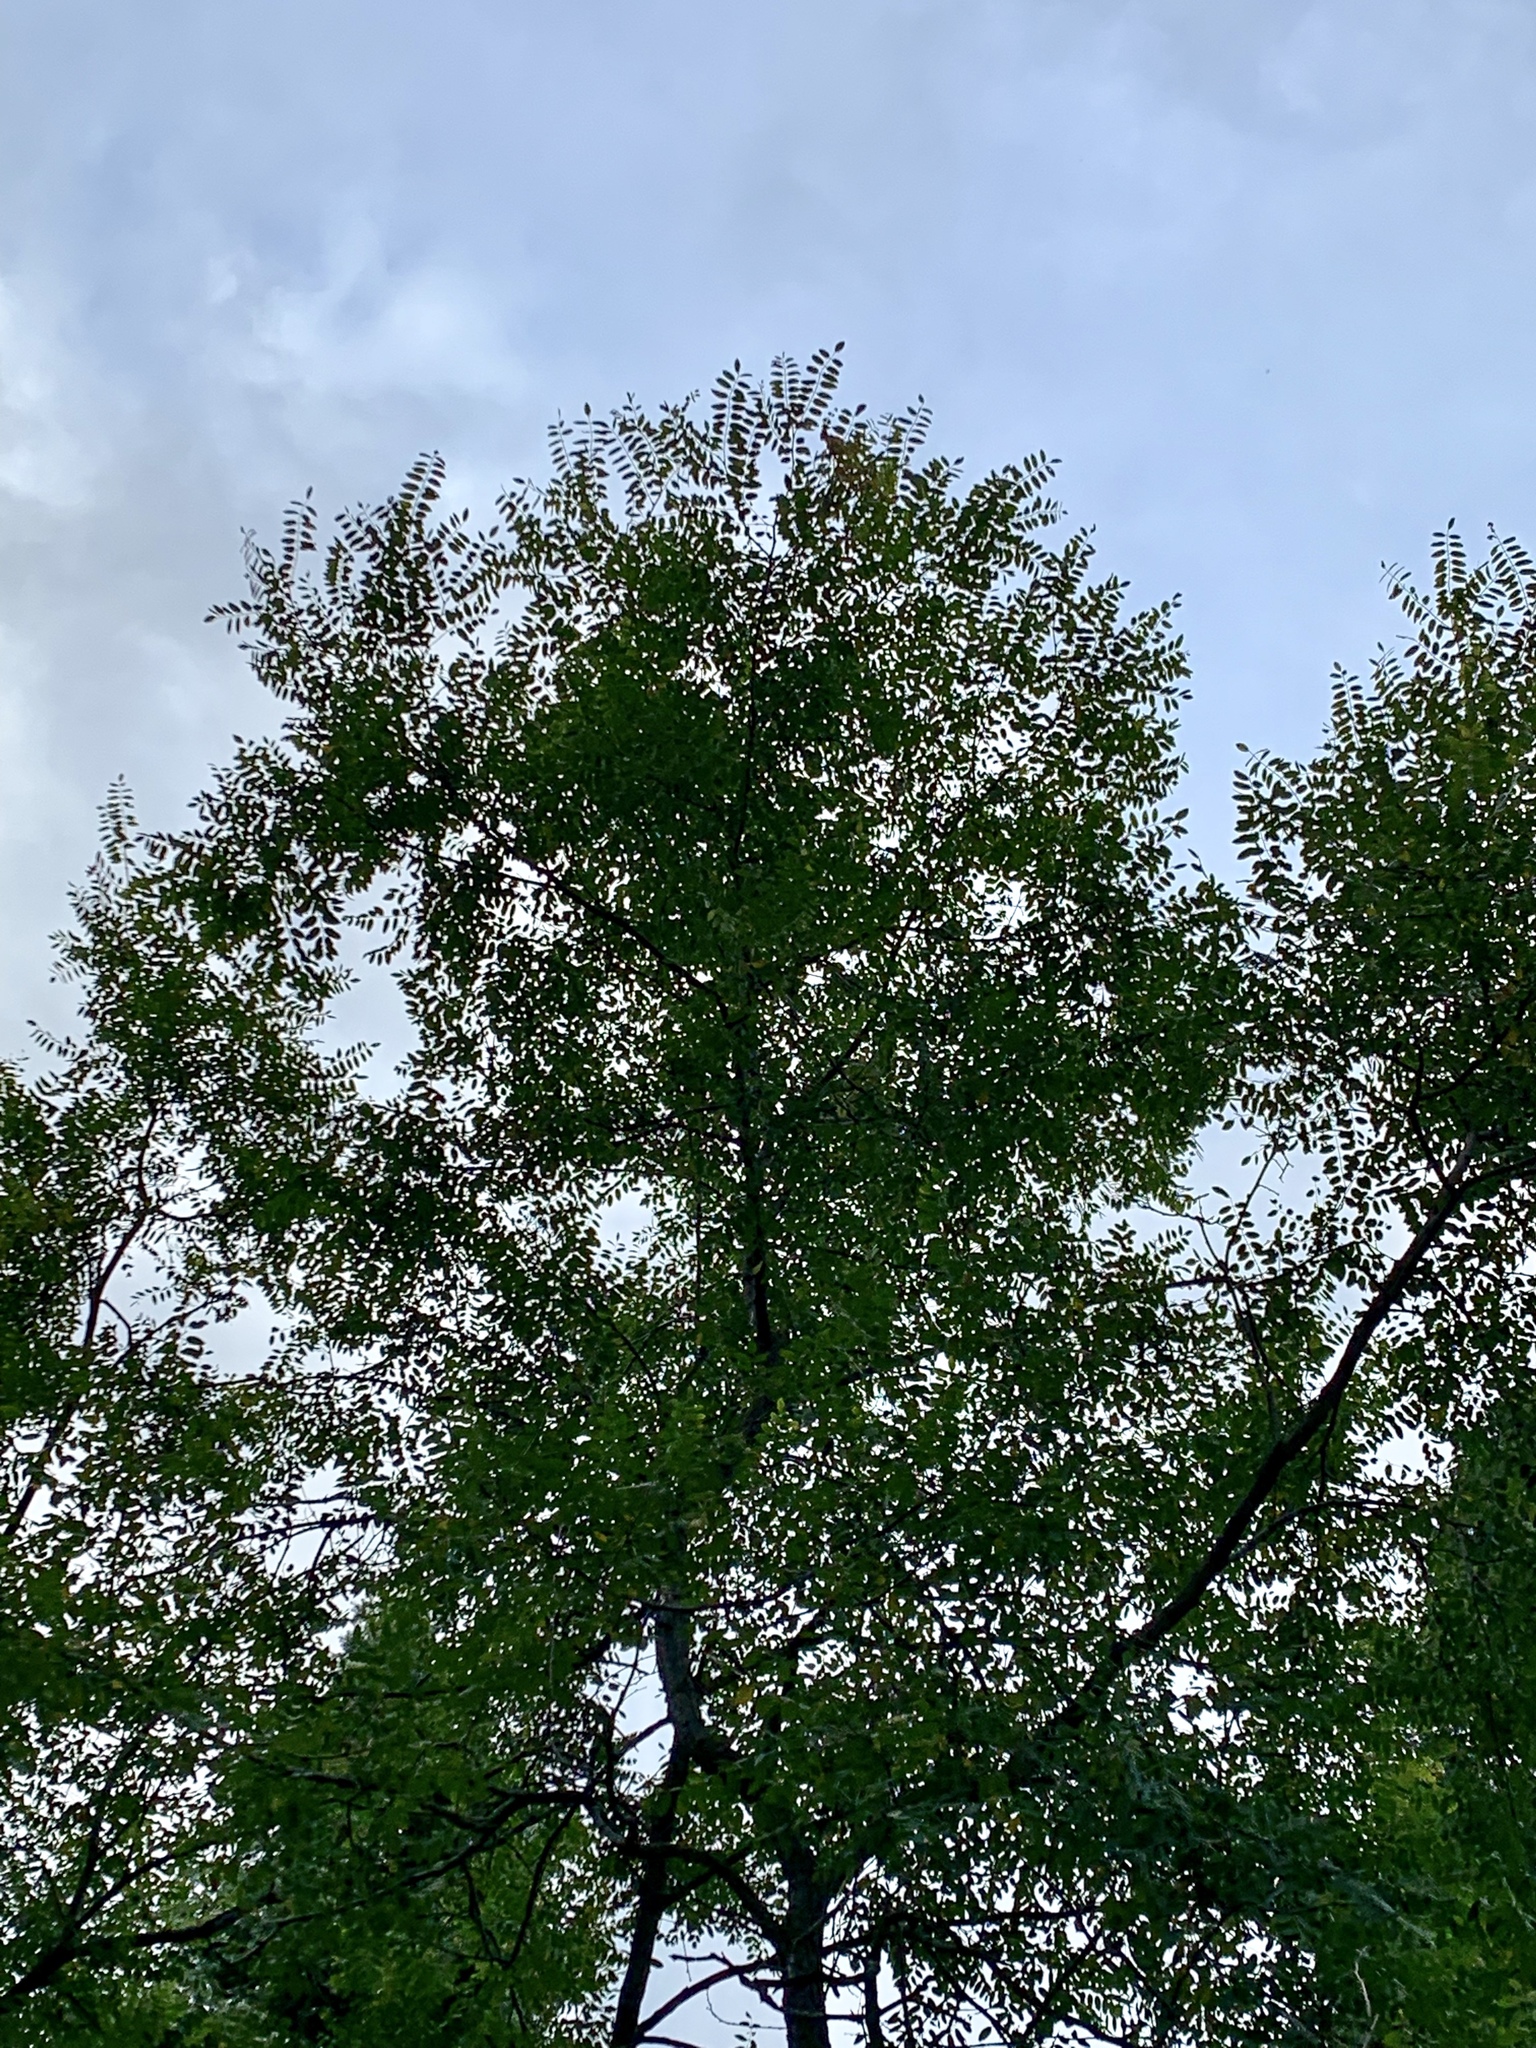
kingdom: Plantae
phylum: Tracheophyta
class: Magnoliopsida
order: Fabales
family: Fabaceae
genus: Robinia
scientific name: Robinia neomexicana
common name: New mexico locust
